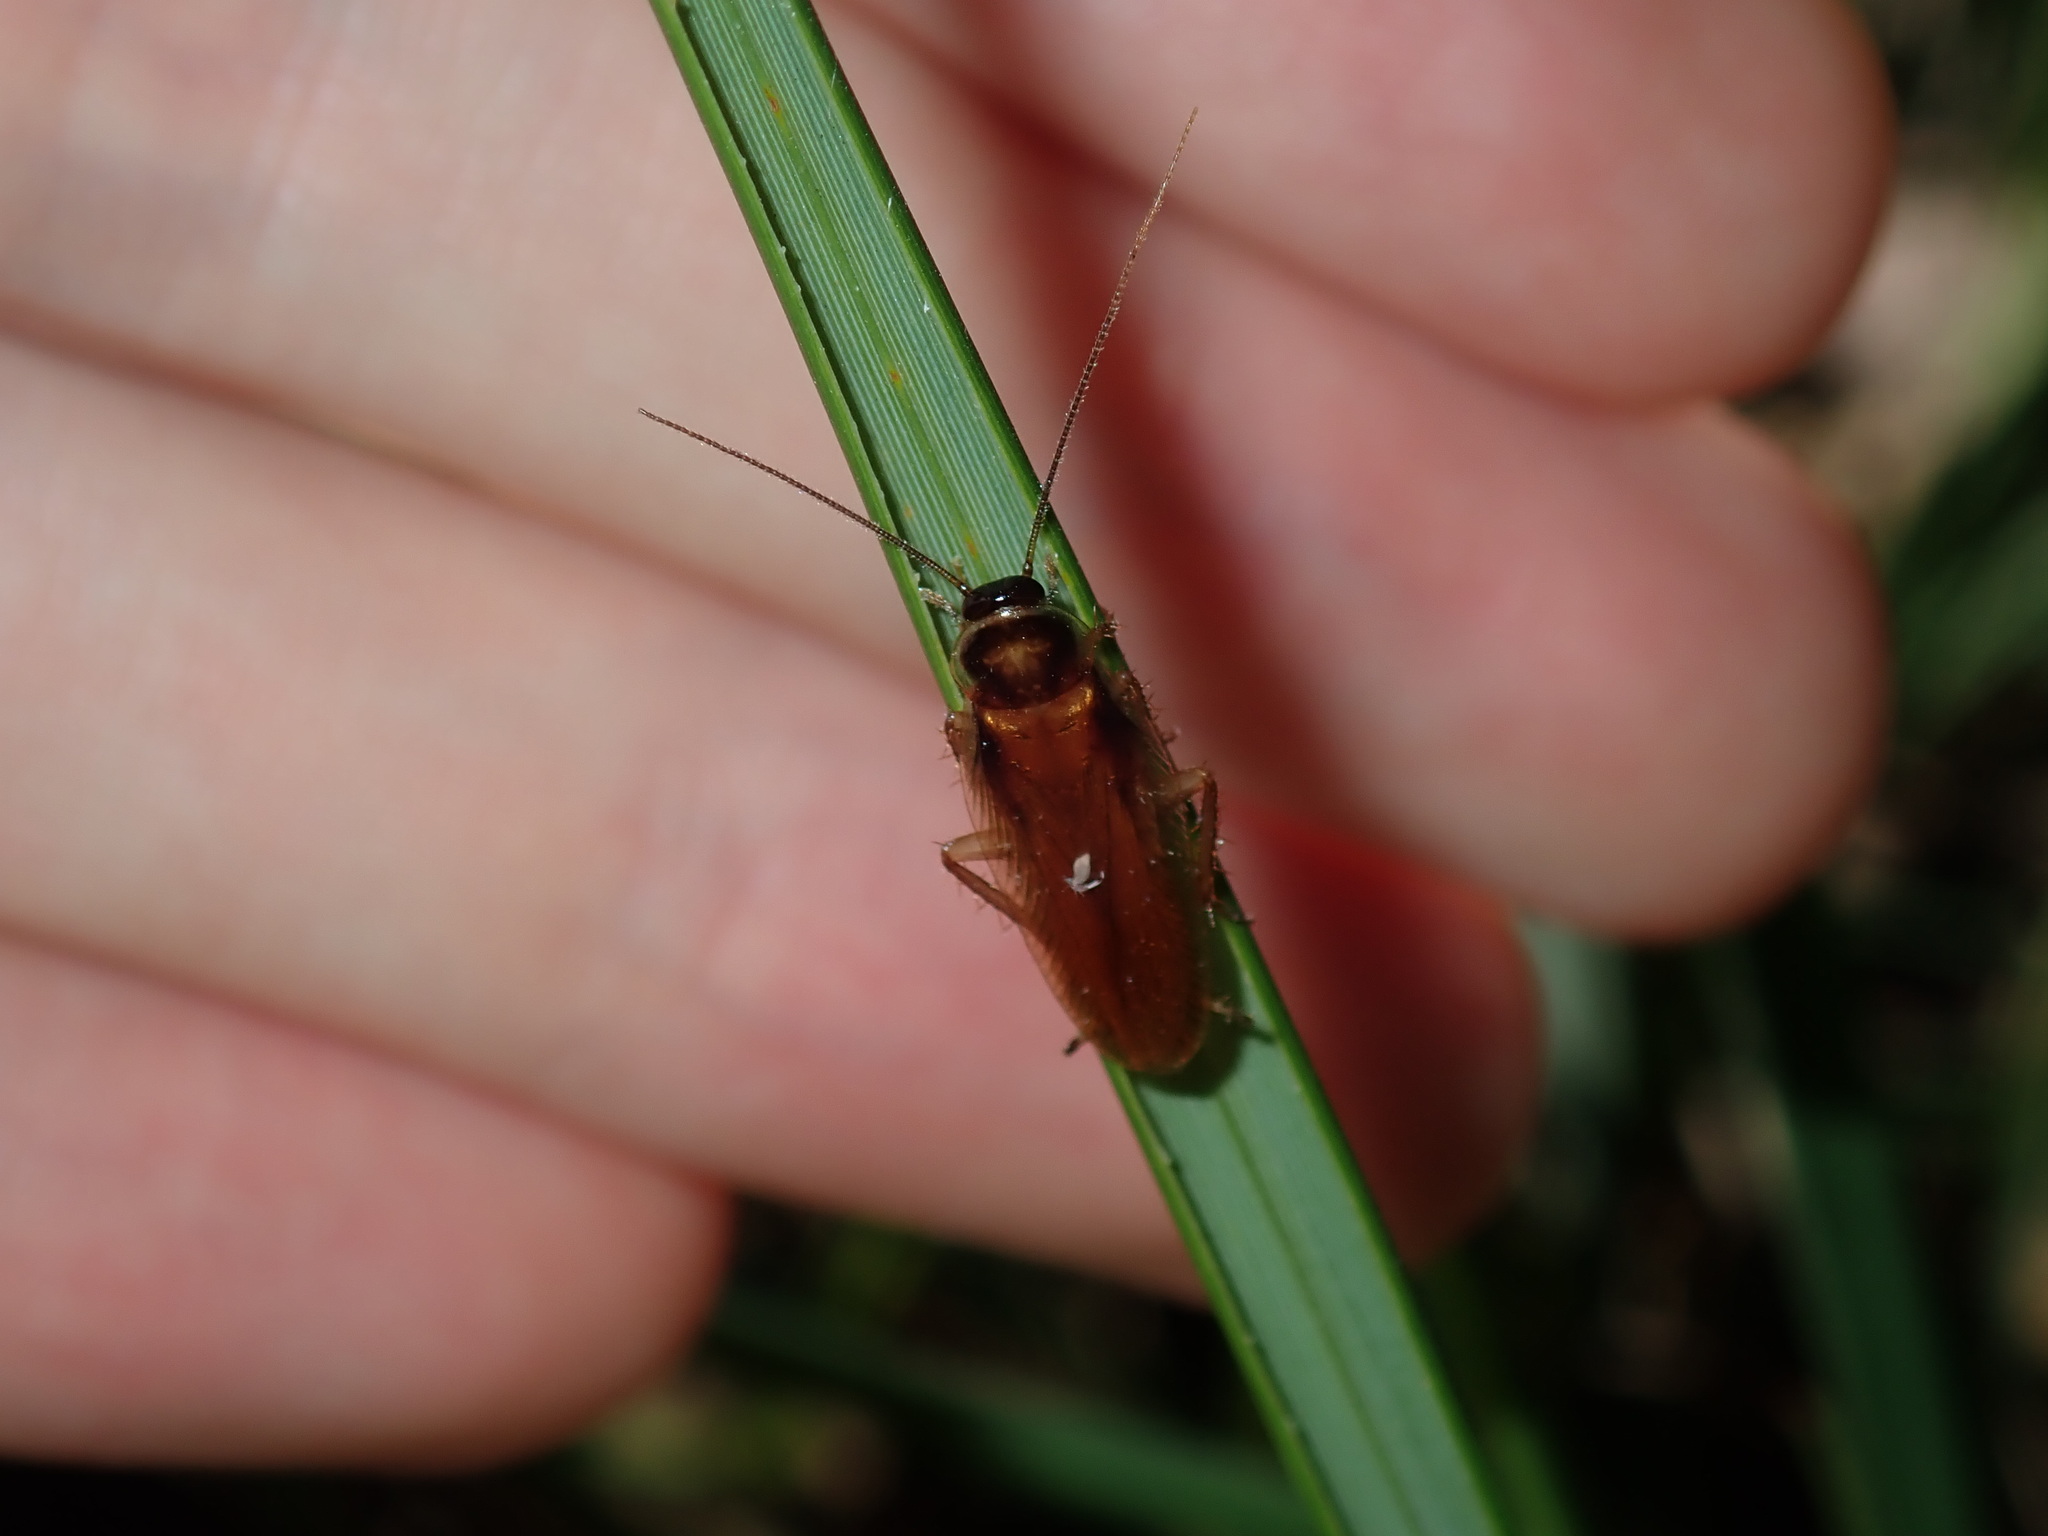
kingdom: Animalia
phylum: Arthropoda
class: Insecta
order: Blattodea
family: Ectobiidae
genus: Dyakinodes
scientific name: Dyakinodes centralis
